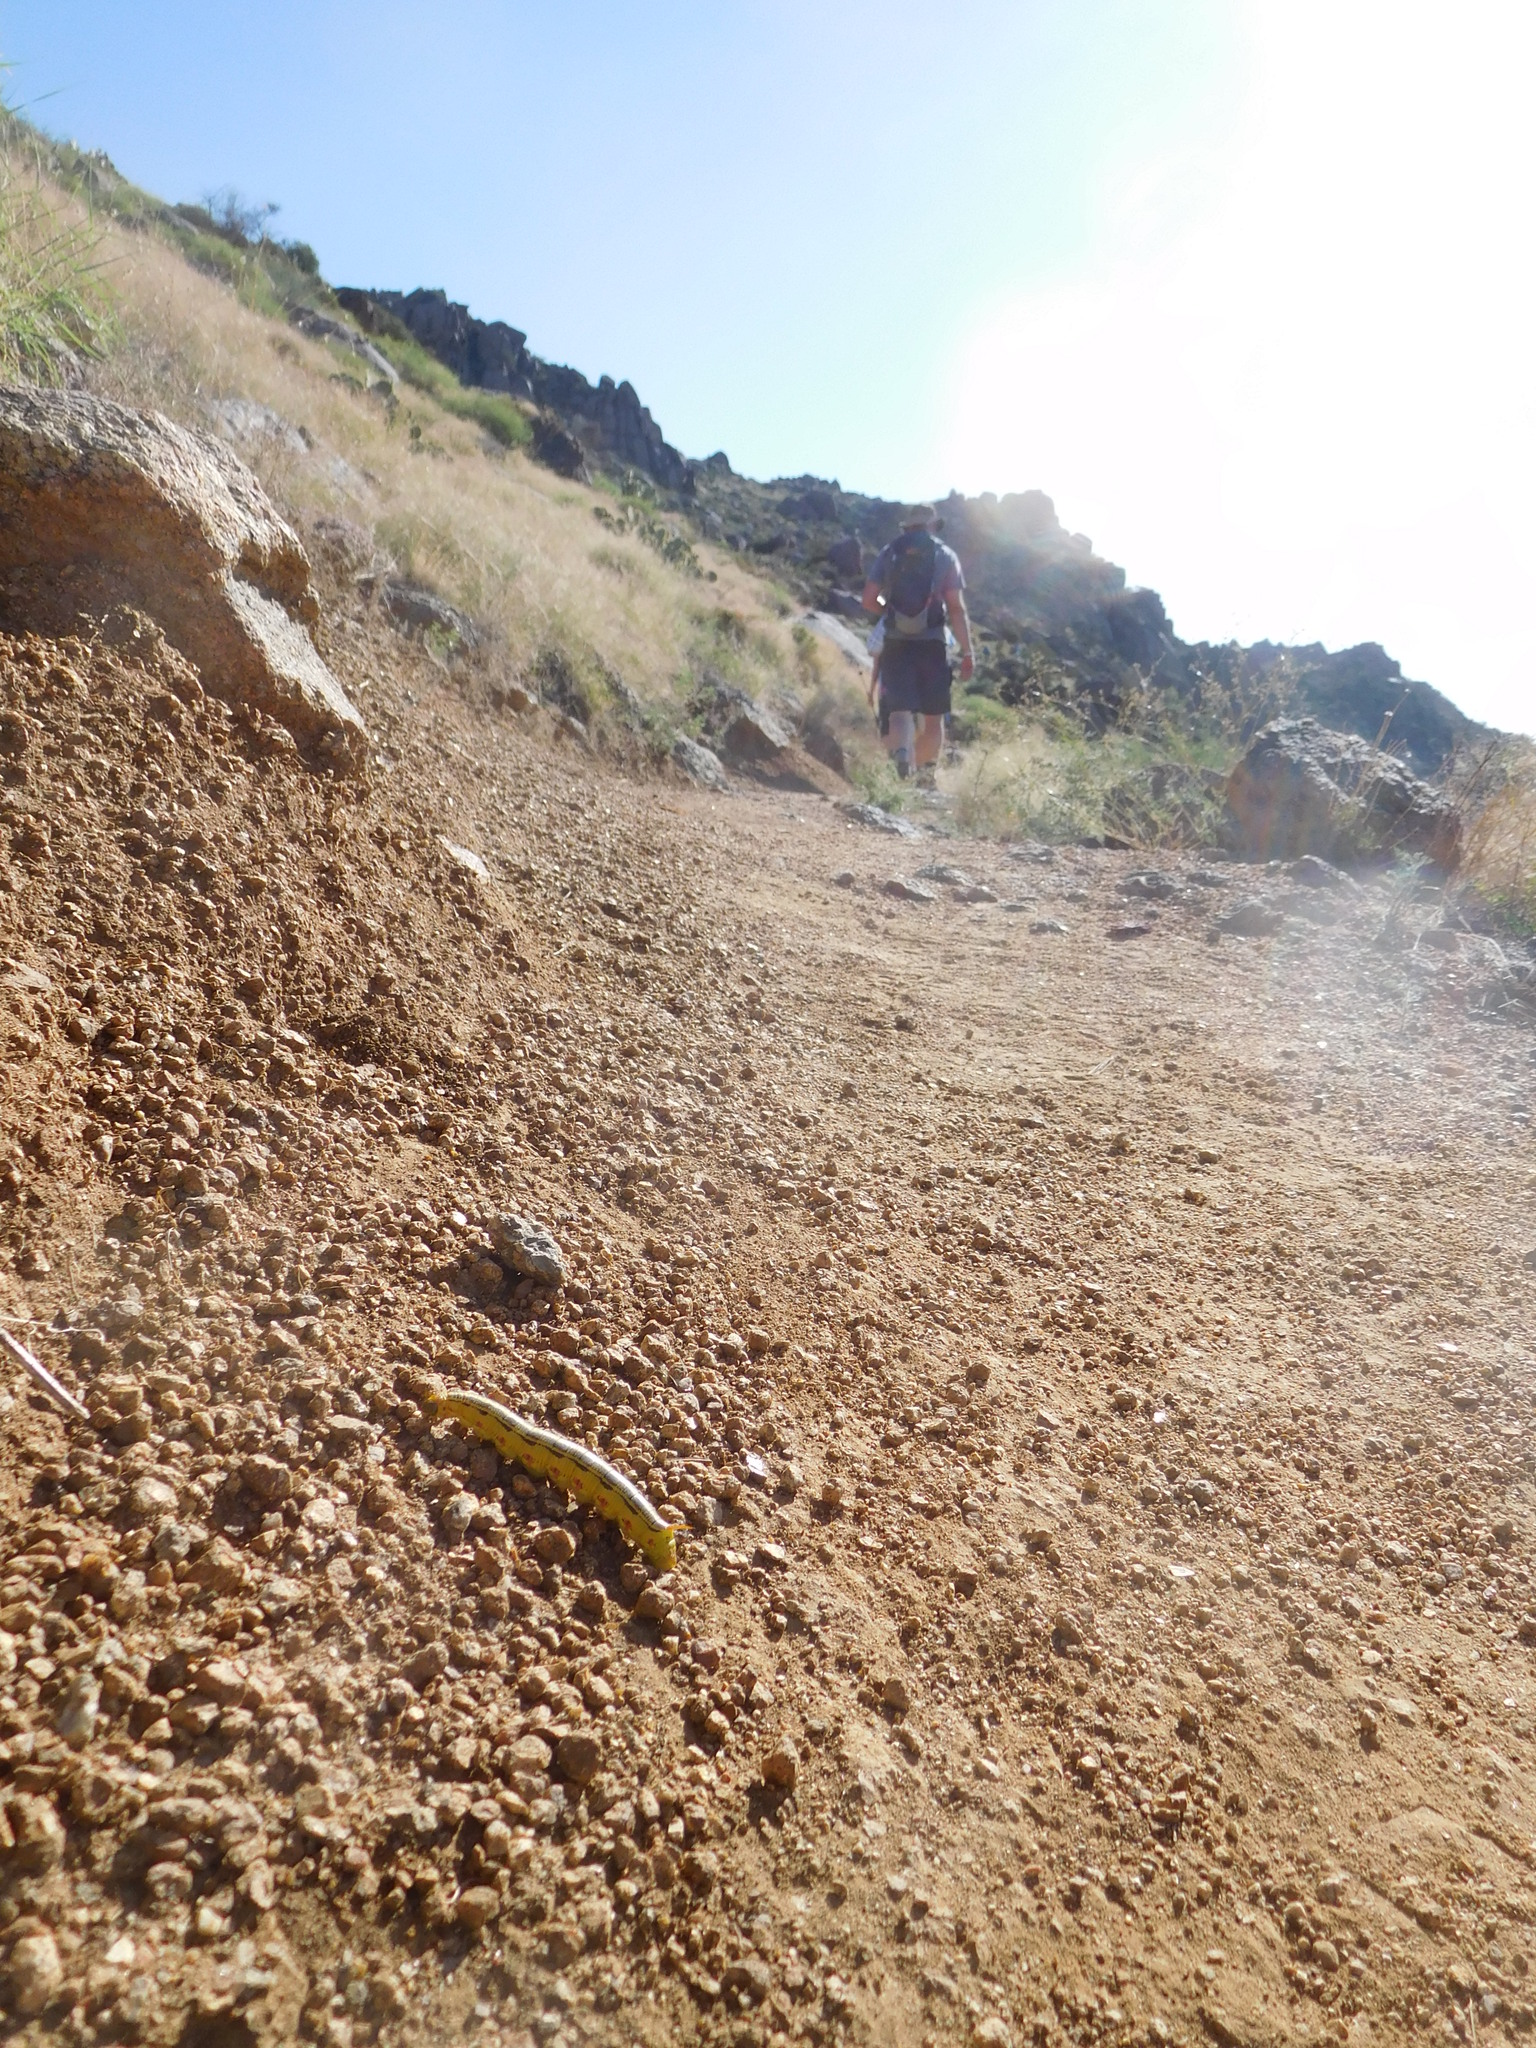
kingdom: Animalia
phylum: Arthropoda
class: Insecta
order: Lepidoptera
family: Sphingidae
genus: Hyles
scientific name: Hyles lineata
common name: White-lined sphinx
